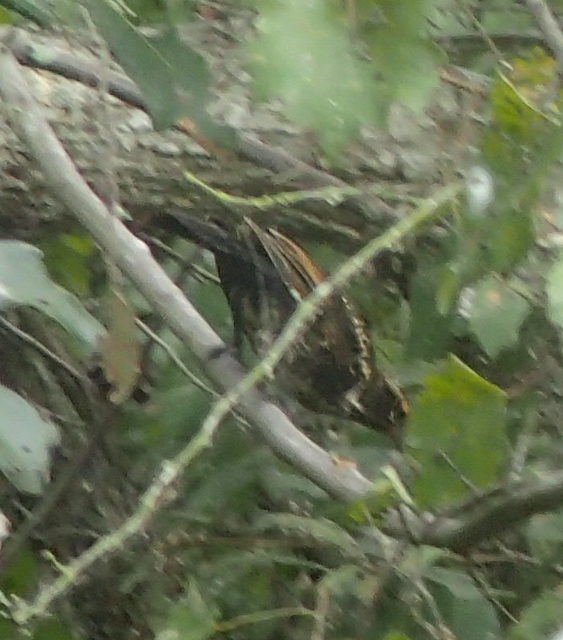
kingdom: Animalia
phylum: Chordata
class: Aves
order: Passeriformes
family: Icteridae
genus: Agelaius
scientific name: Agelaius phoeniceus
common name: Red-winged blackbird
